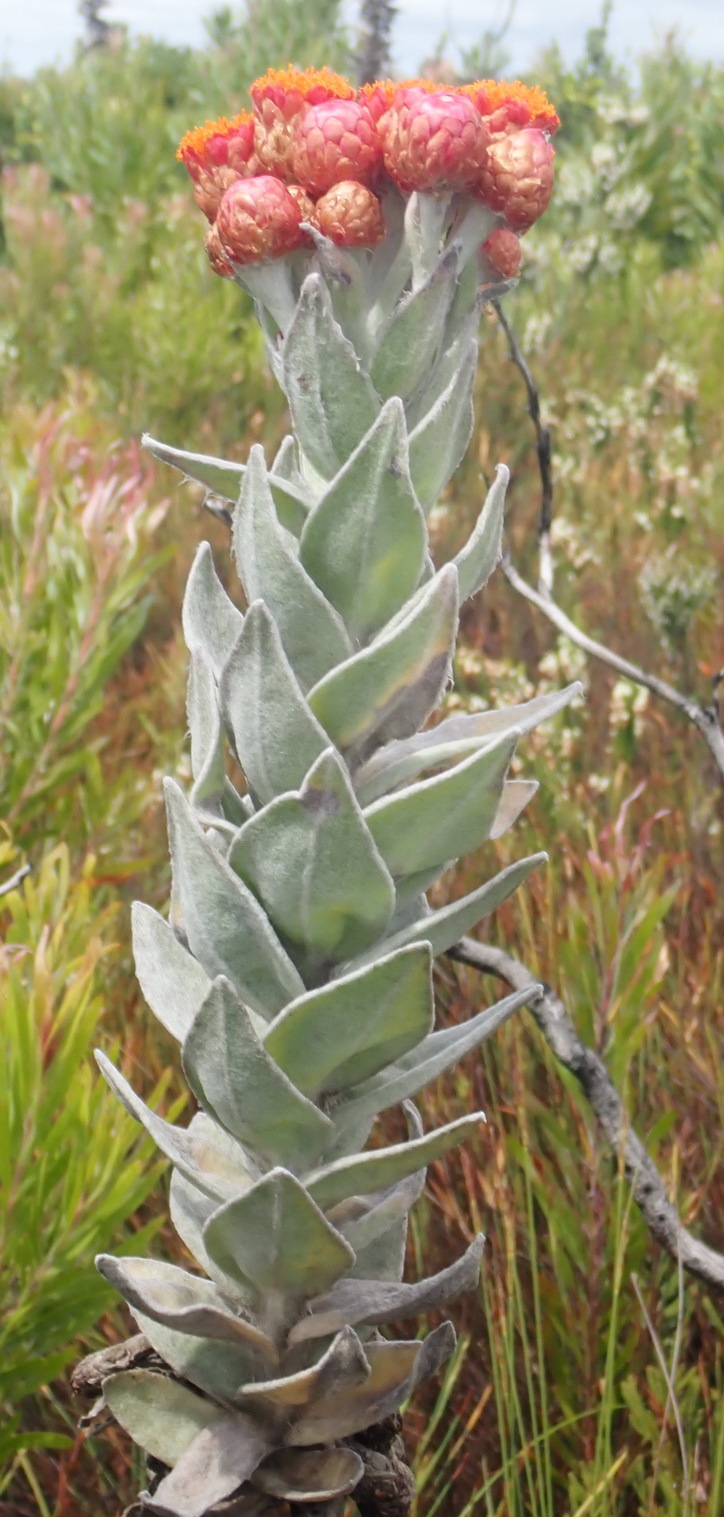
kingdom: Plantae
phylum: Tracheophyta
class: Magnoliopsida
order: Asterales
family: Asteraceae
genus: Syncarpha
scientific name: Syncarpha eximia
